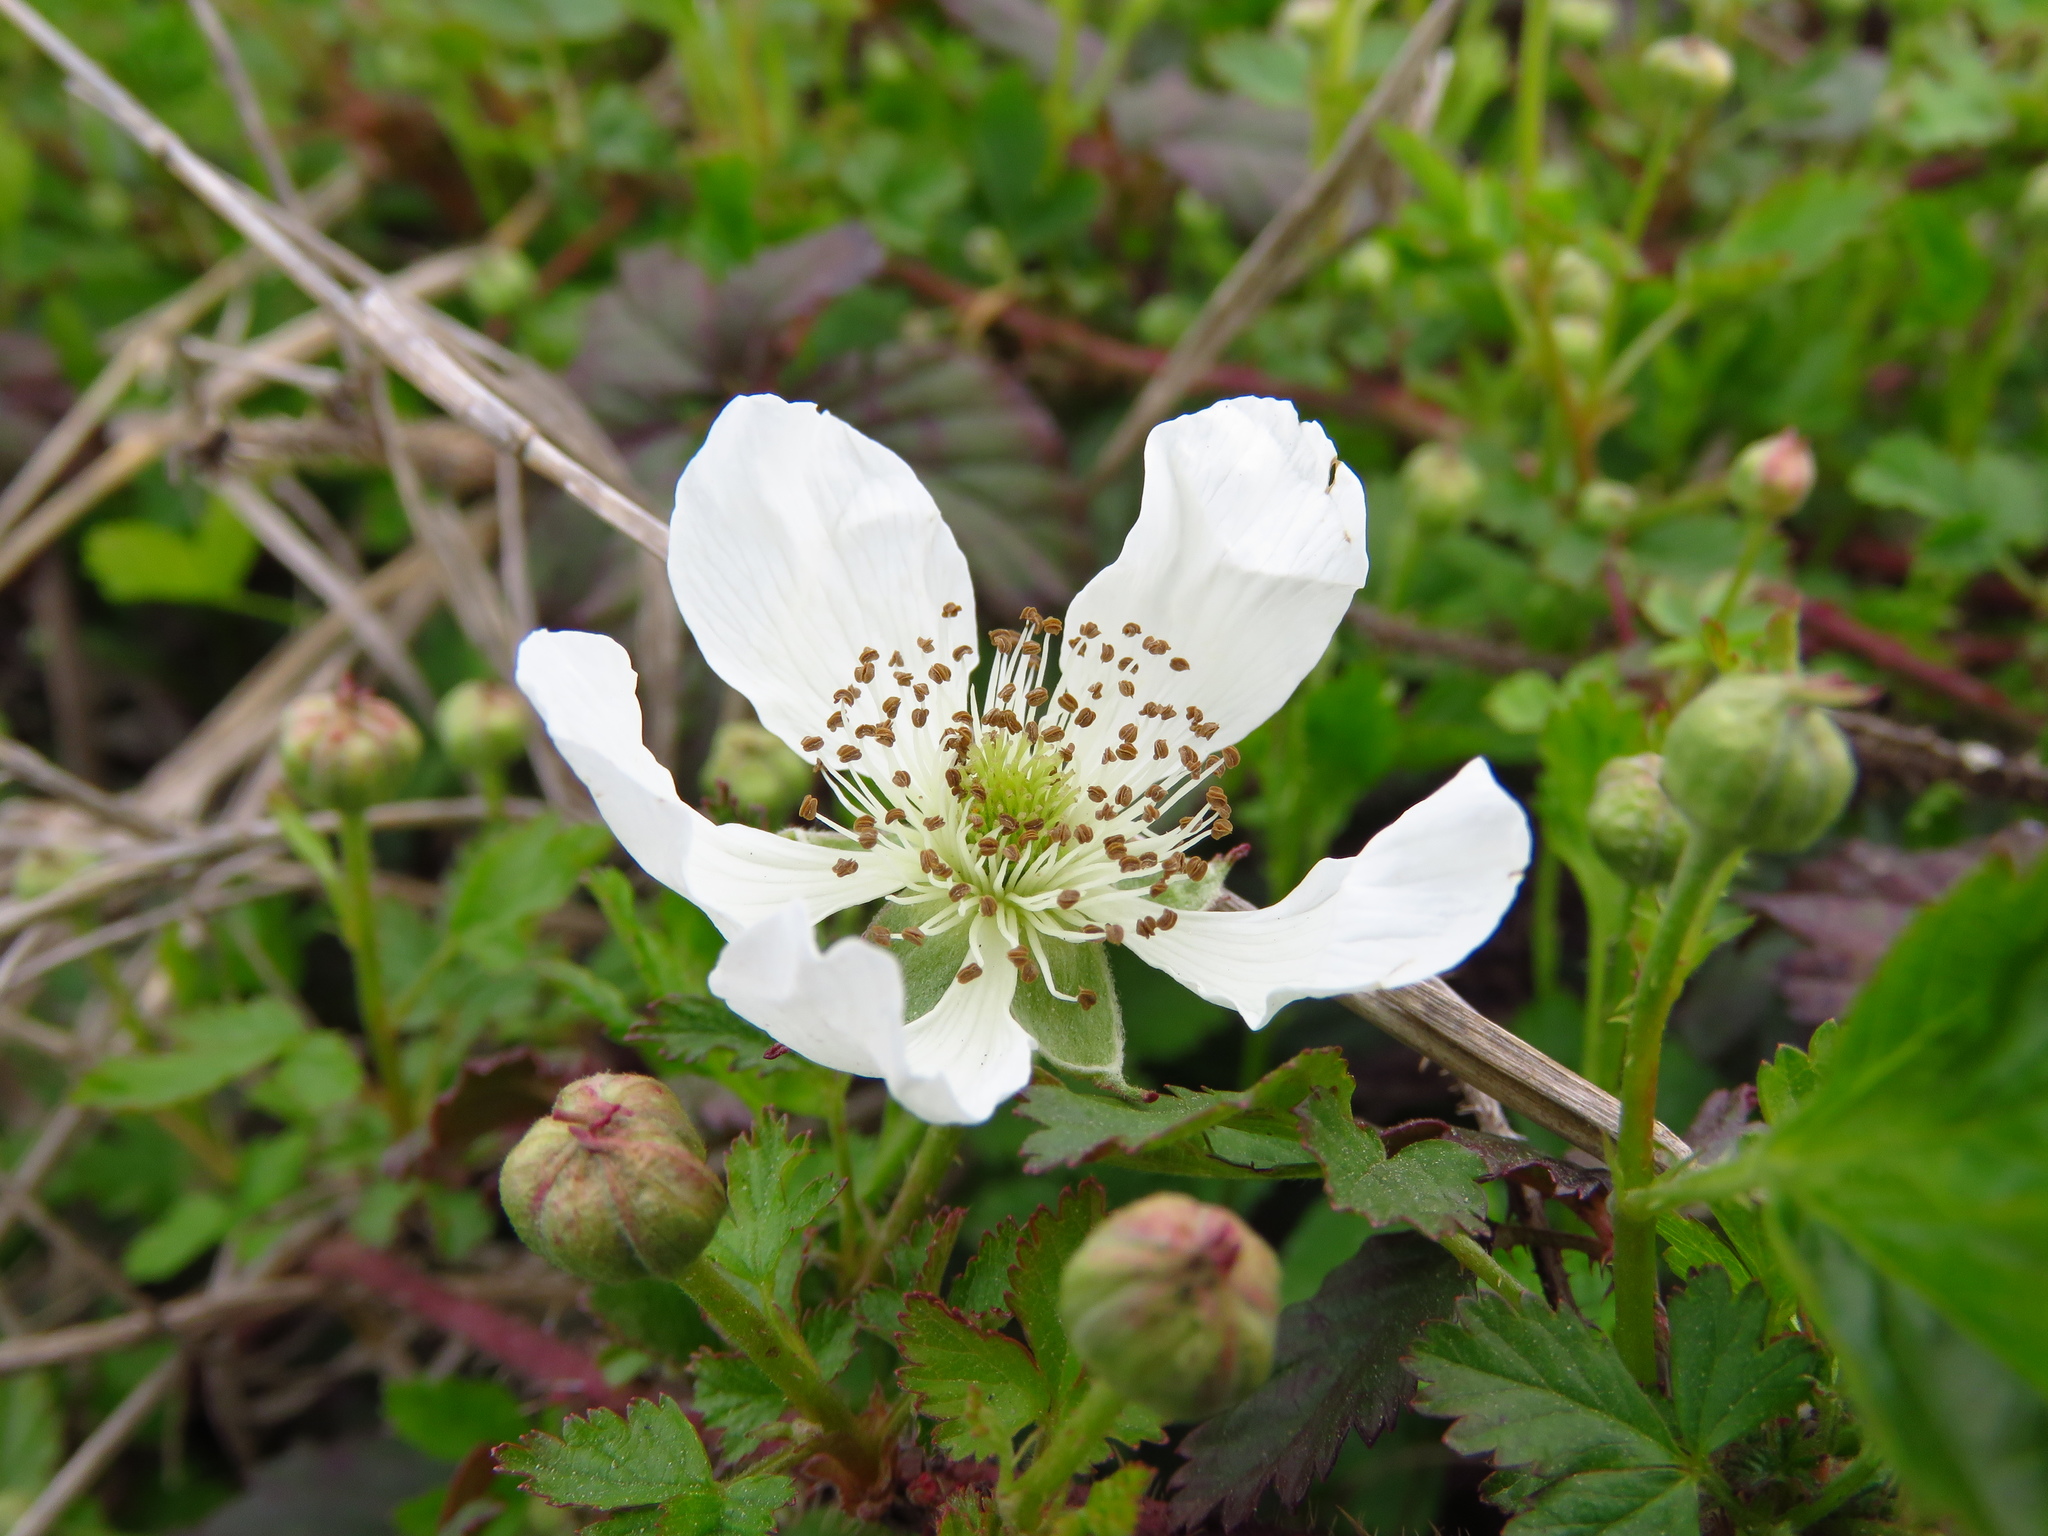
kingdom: Plantae
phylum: Tracheophyta
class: Magnoliopsida
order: Rosales
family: Rosaceae
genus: Rubus
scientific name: Rubus trivialis
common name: Southern dewberry
